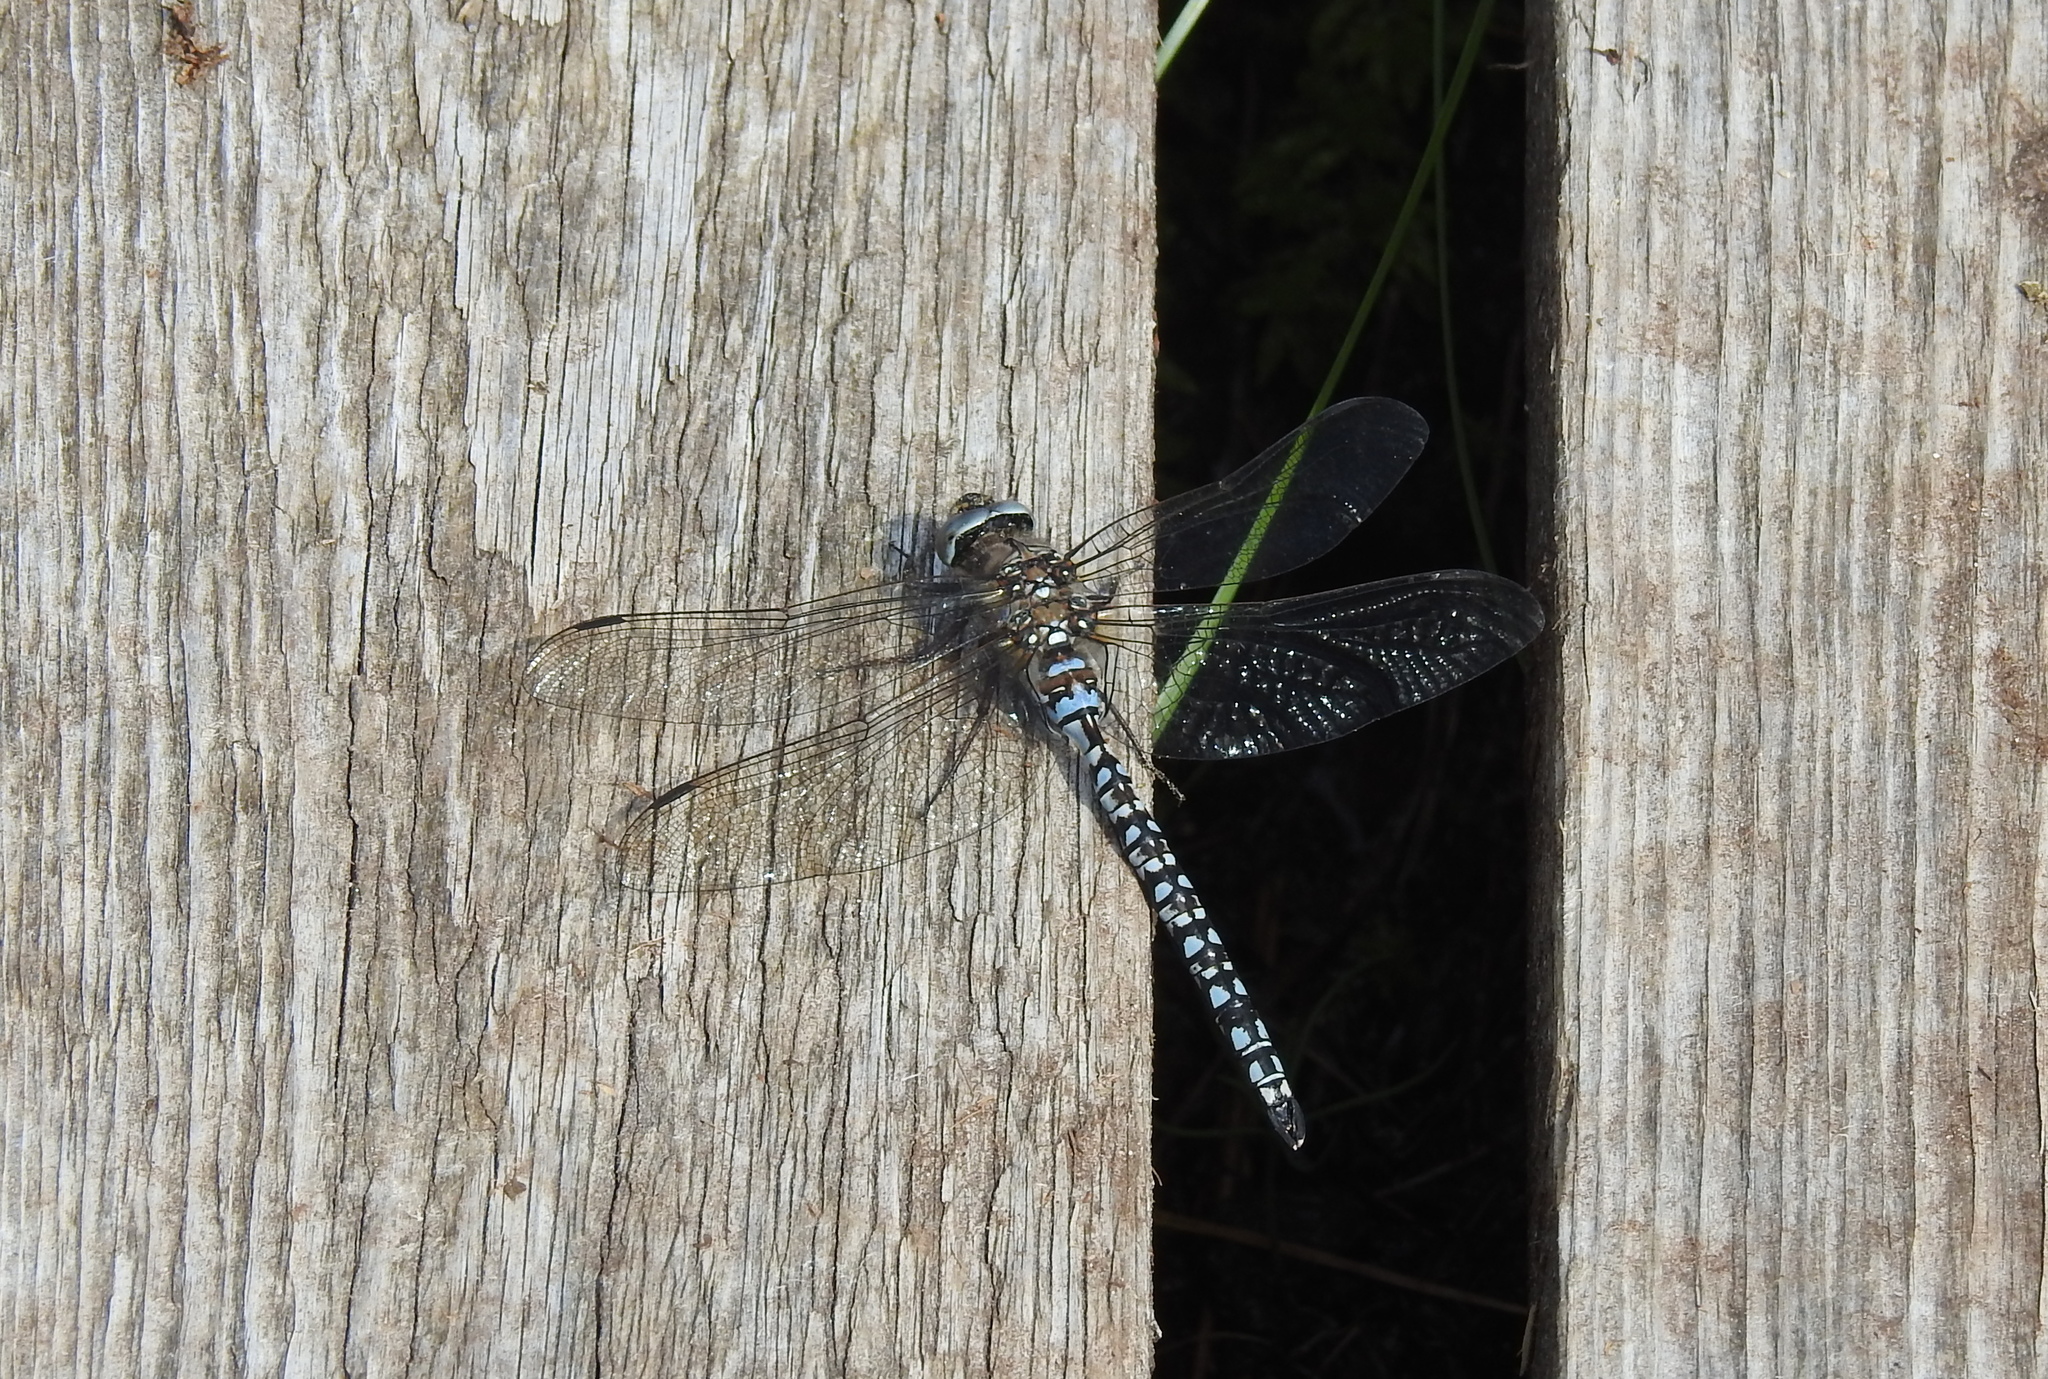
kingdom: Animalia
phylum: Arthropoda
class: Insecta
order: Odonata
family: Aeshnidae
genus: Aeshna
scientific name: Aeshna caerulea
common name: Azure hawker
